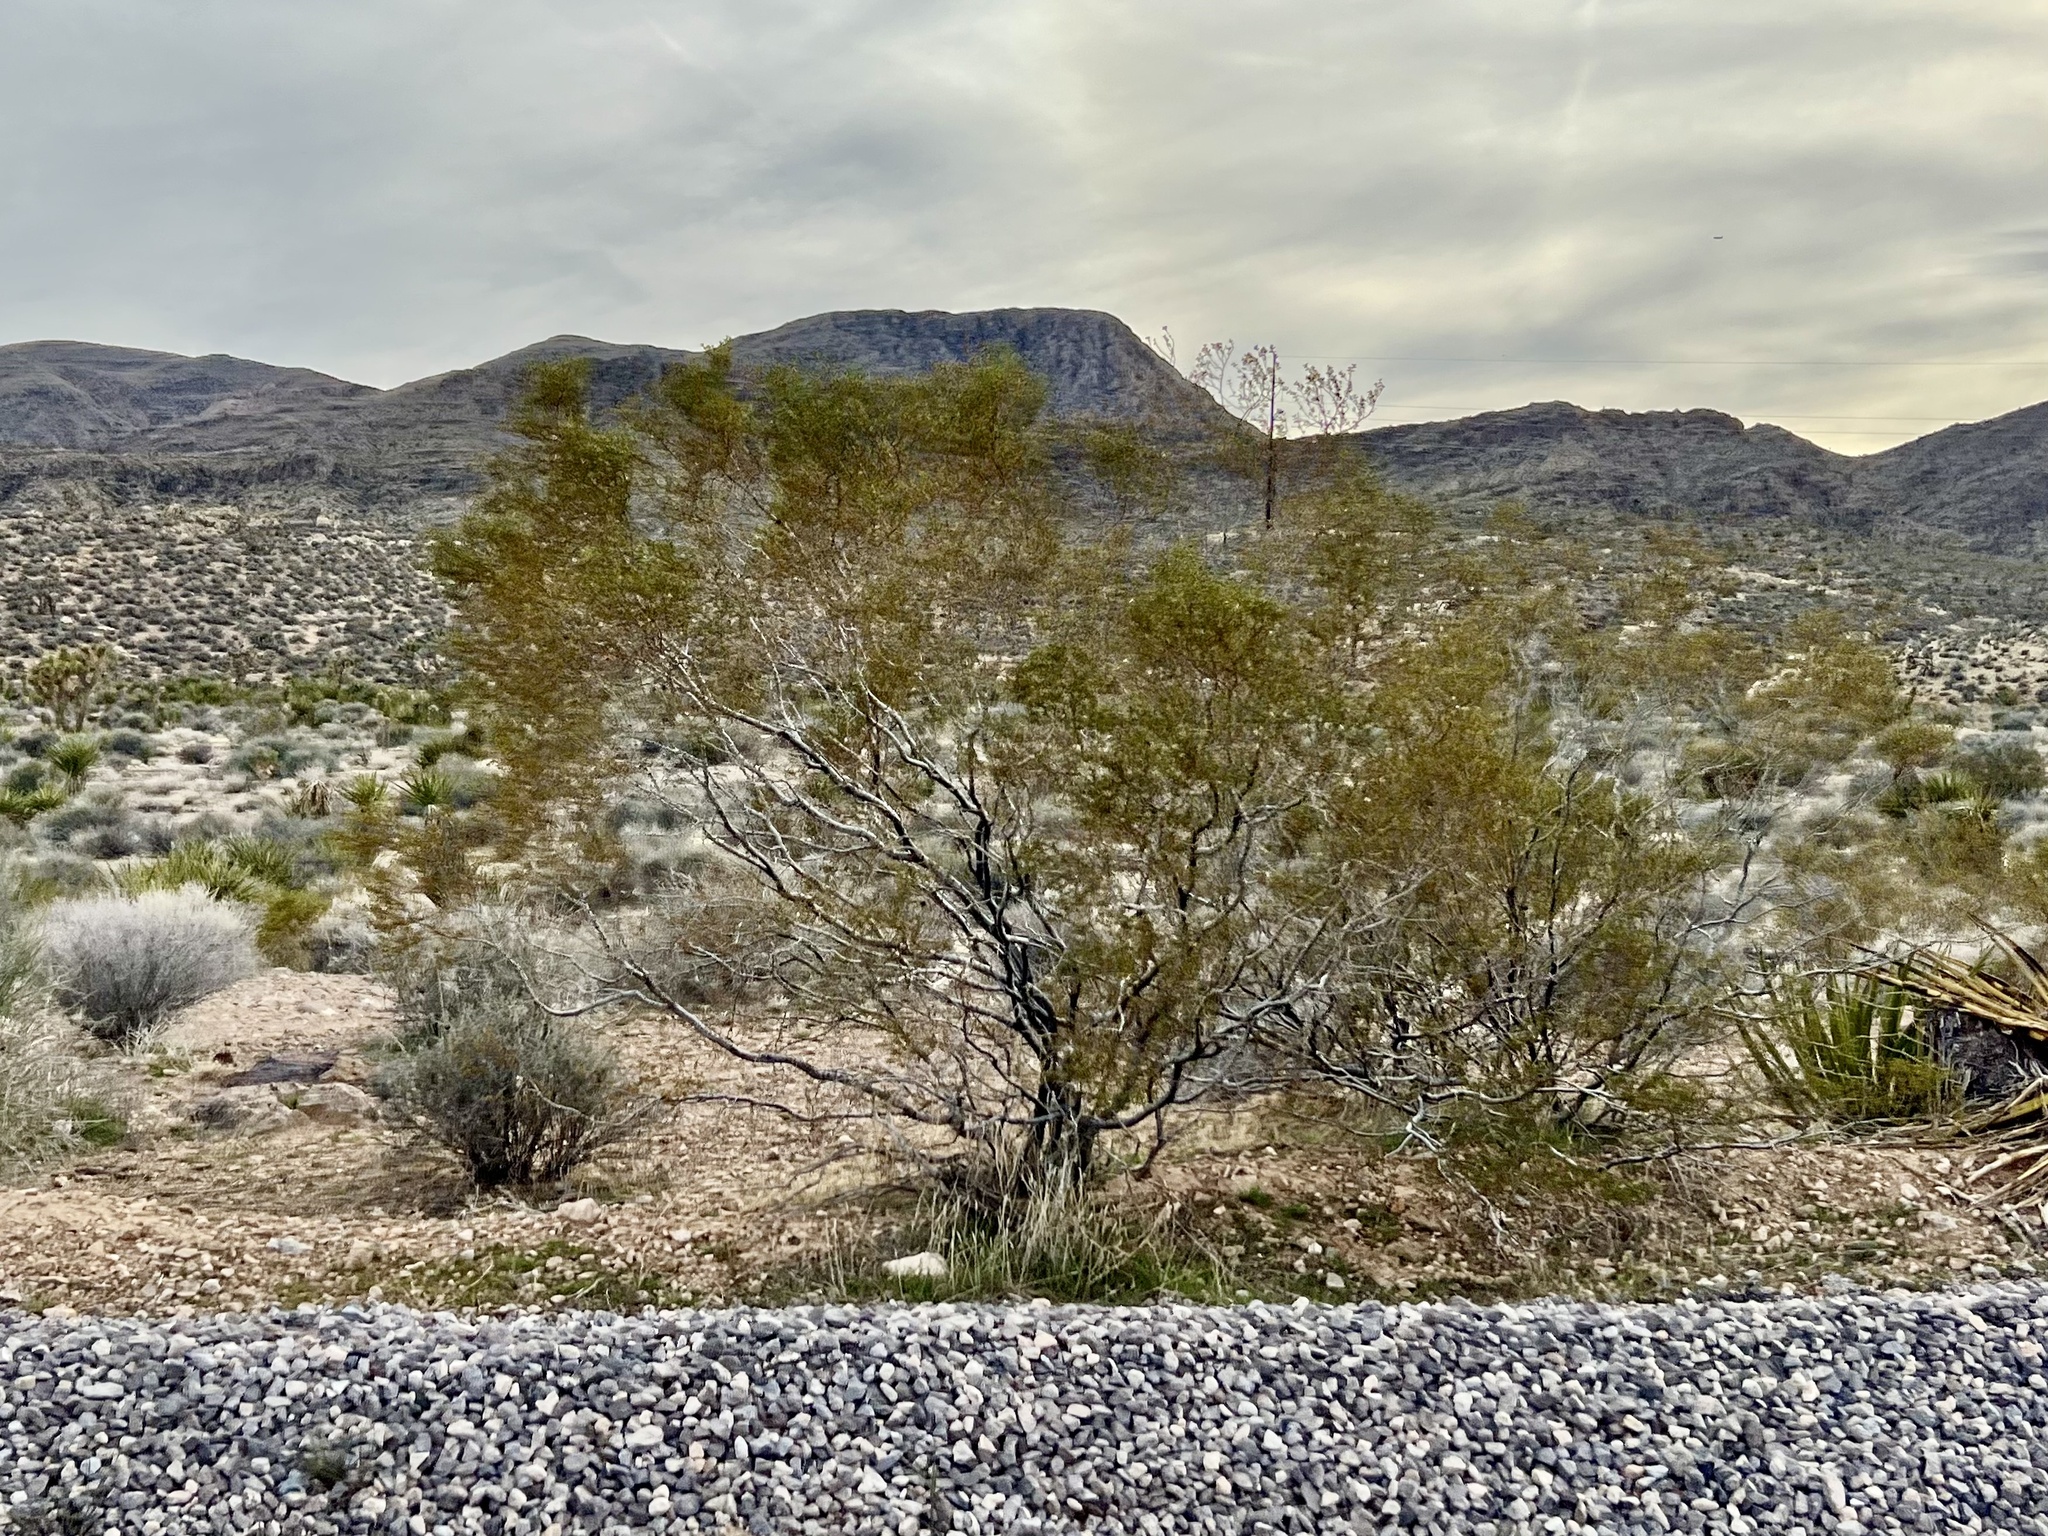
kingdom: Plantae
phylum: Tracheophyta
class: Magnoliopsida
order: Zygophyllales
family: Zygophyllaceae
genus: Larrea
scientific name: Larrea tridentata
